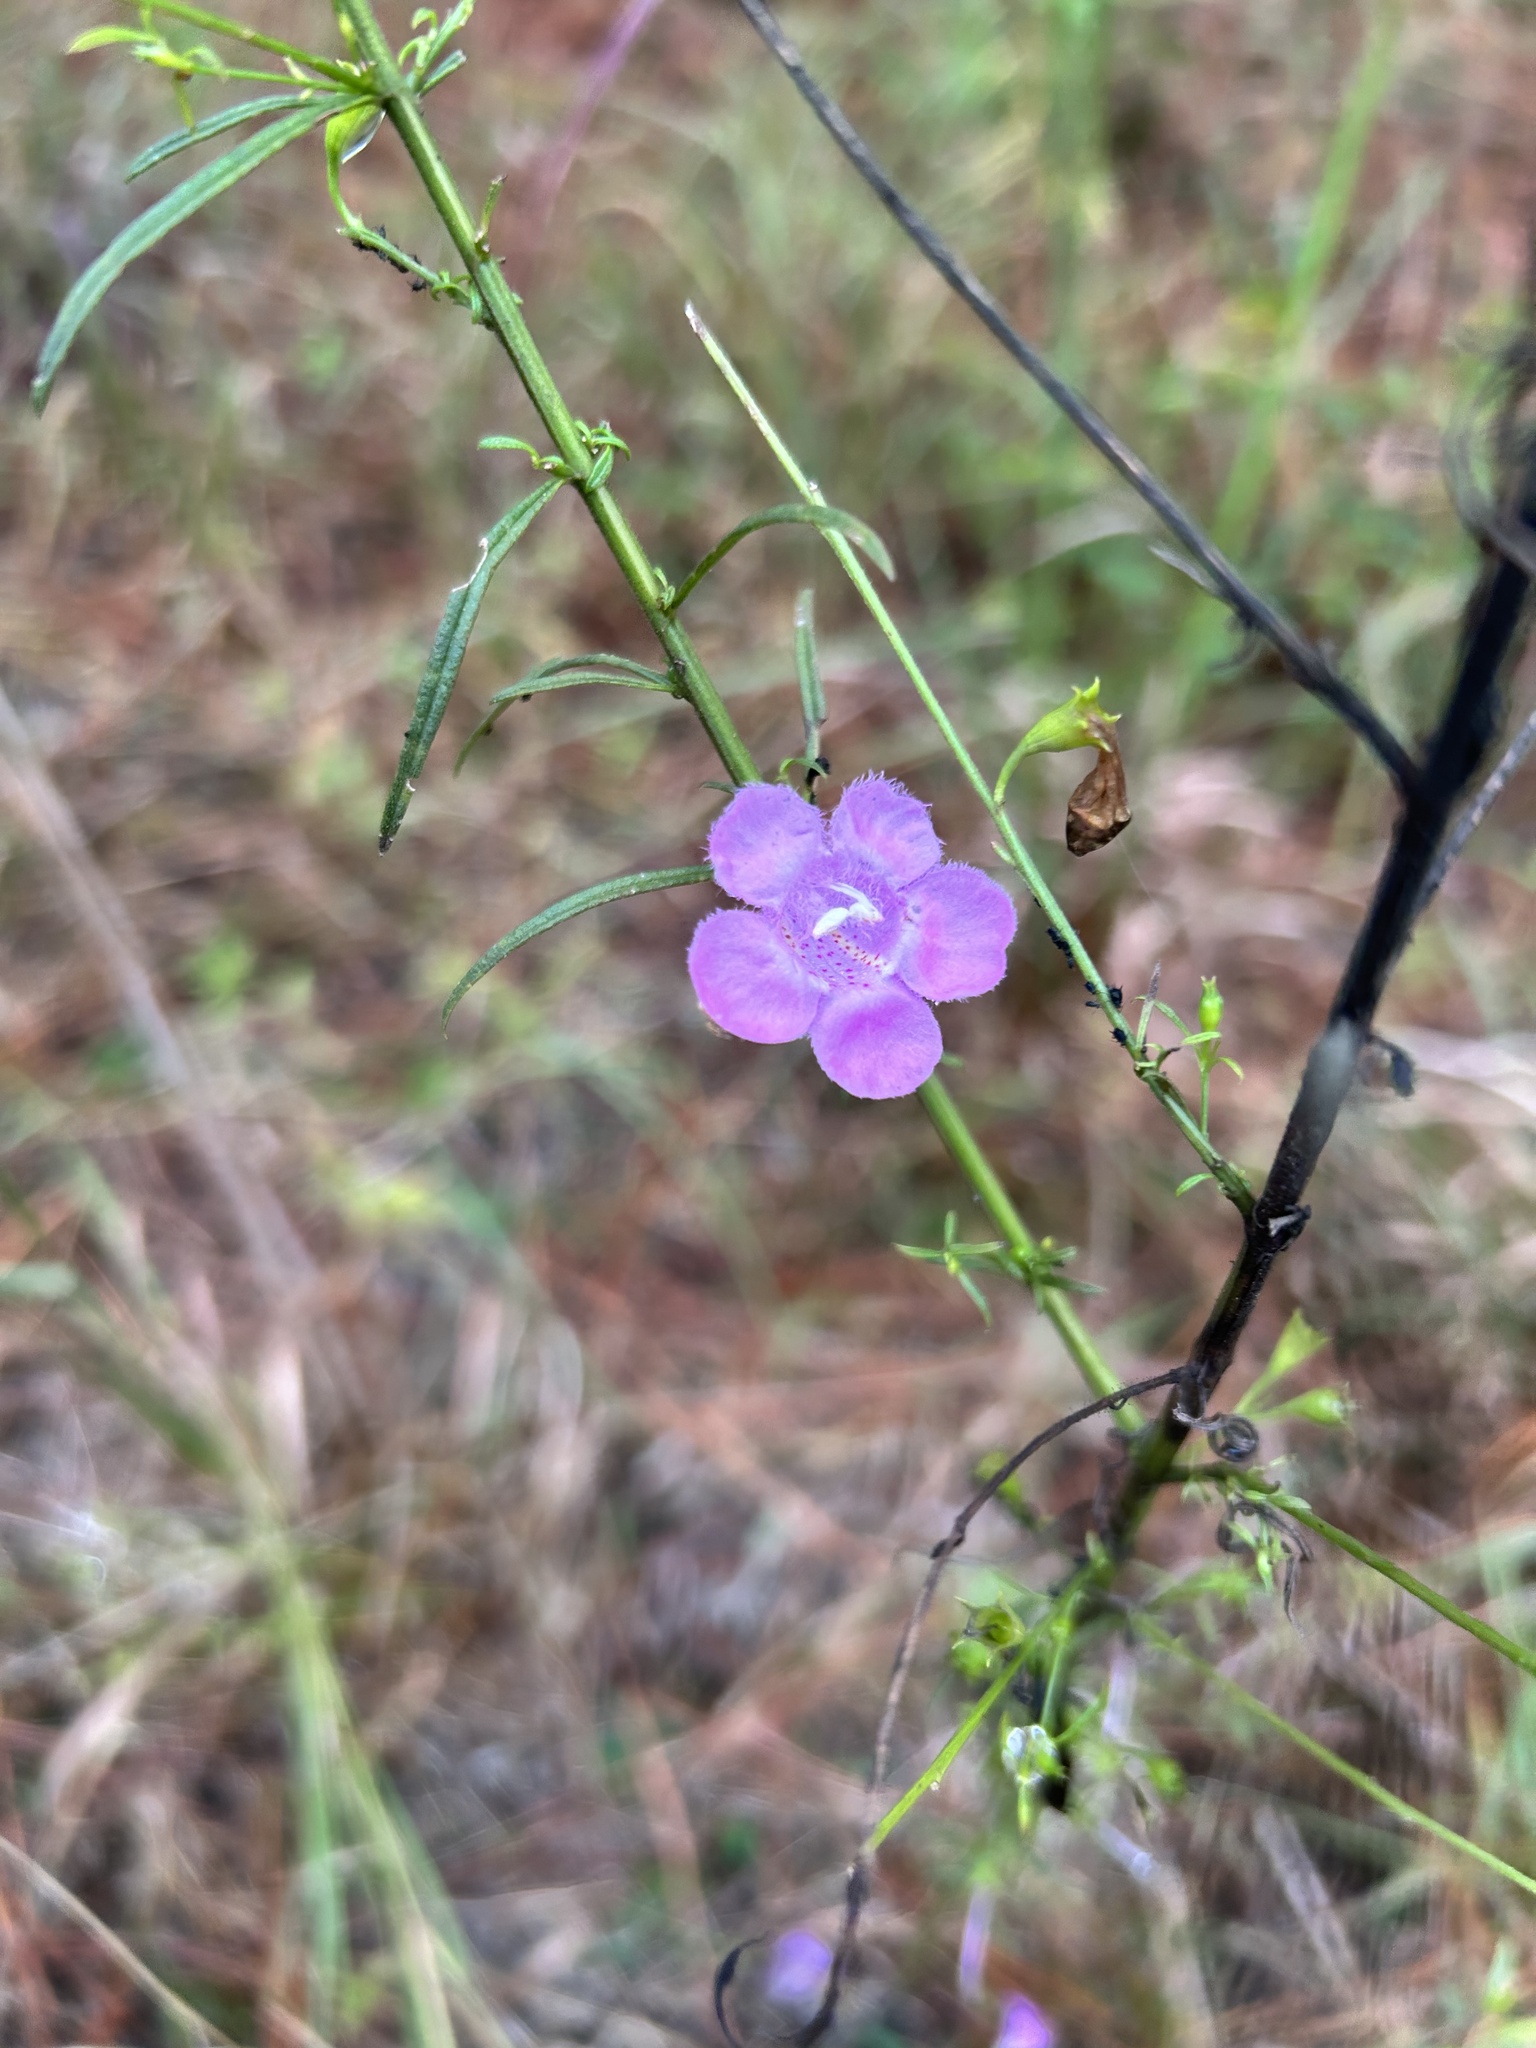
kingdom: Plantae
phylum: Tracheophyta
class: Magnoliopsida
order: Lamiales
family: Orobanchaceae
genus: Agalinis
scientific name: Agalinis purpurea
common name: Purple false foxglove
